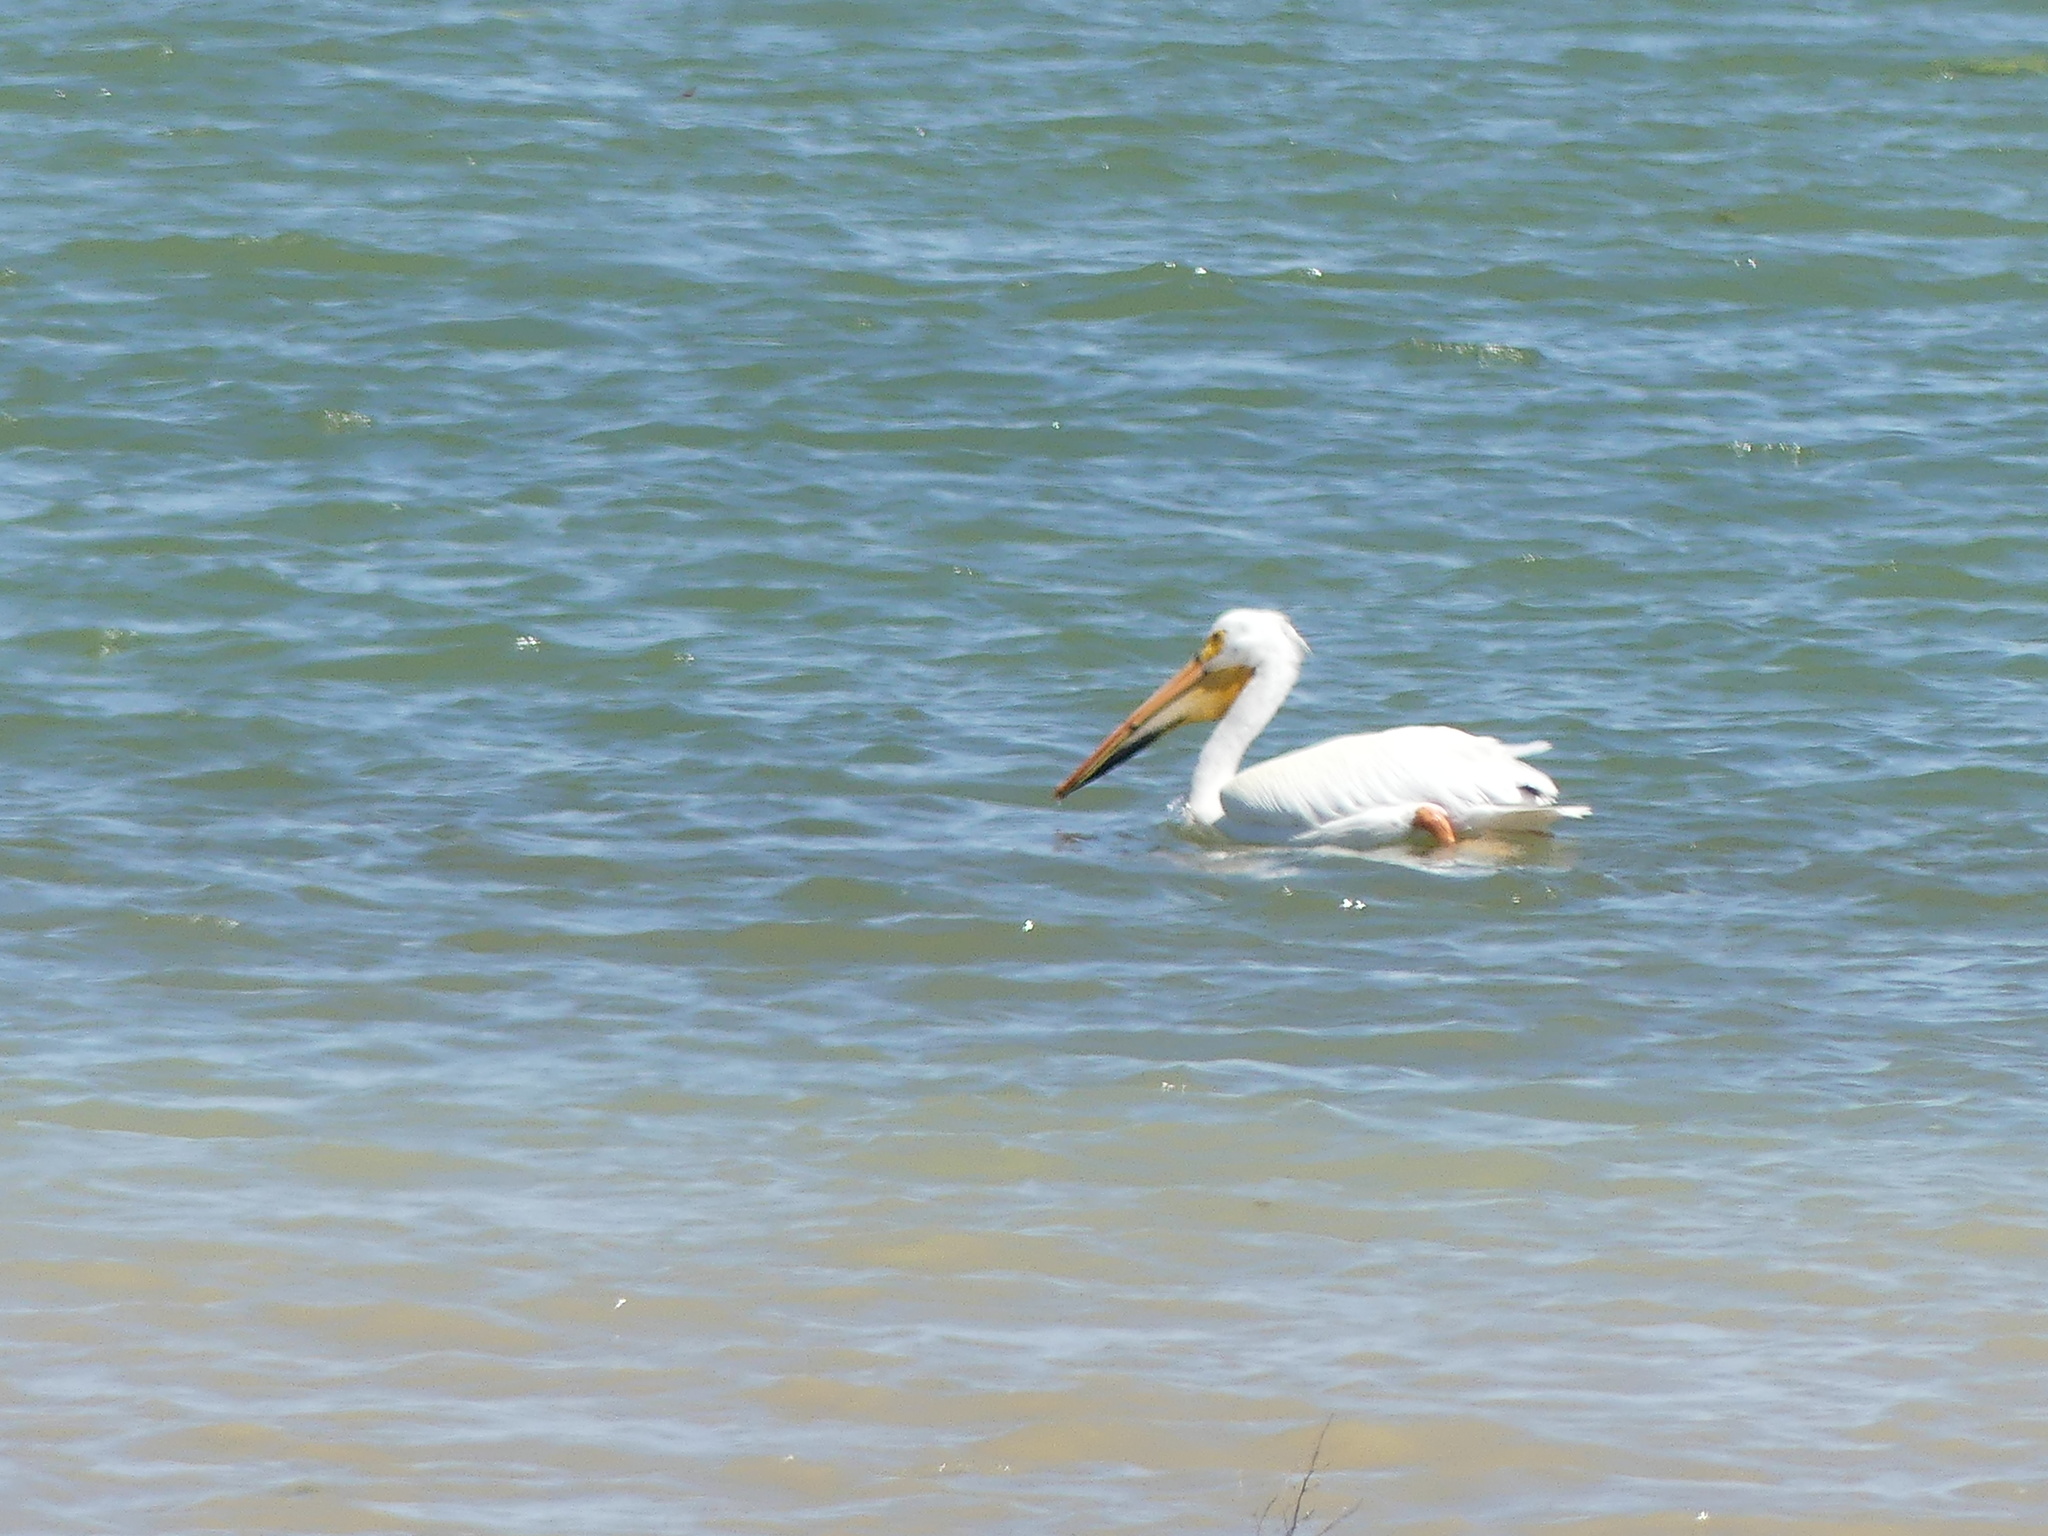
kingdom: Animalia
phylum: Chordata
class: Aves
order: Pelecaniformes
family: Pelecanidae
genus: Pelecanus
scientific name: Pelecanus erythrorhynchos
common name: American white pelican
